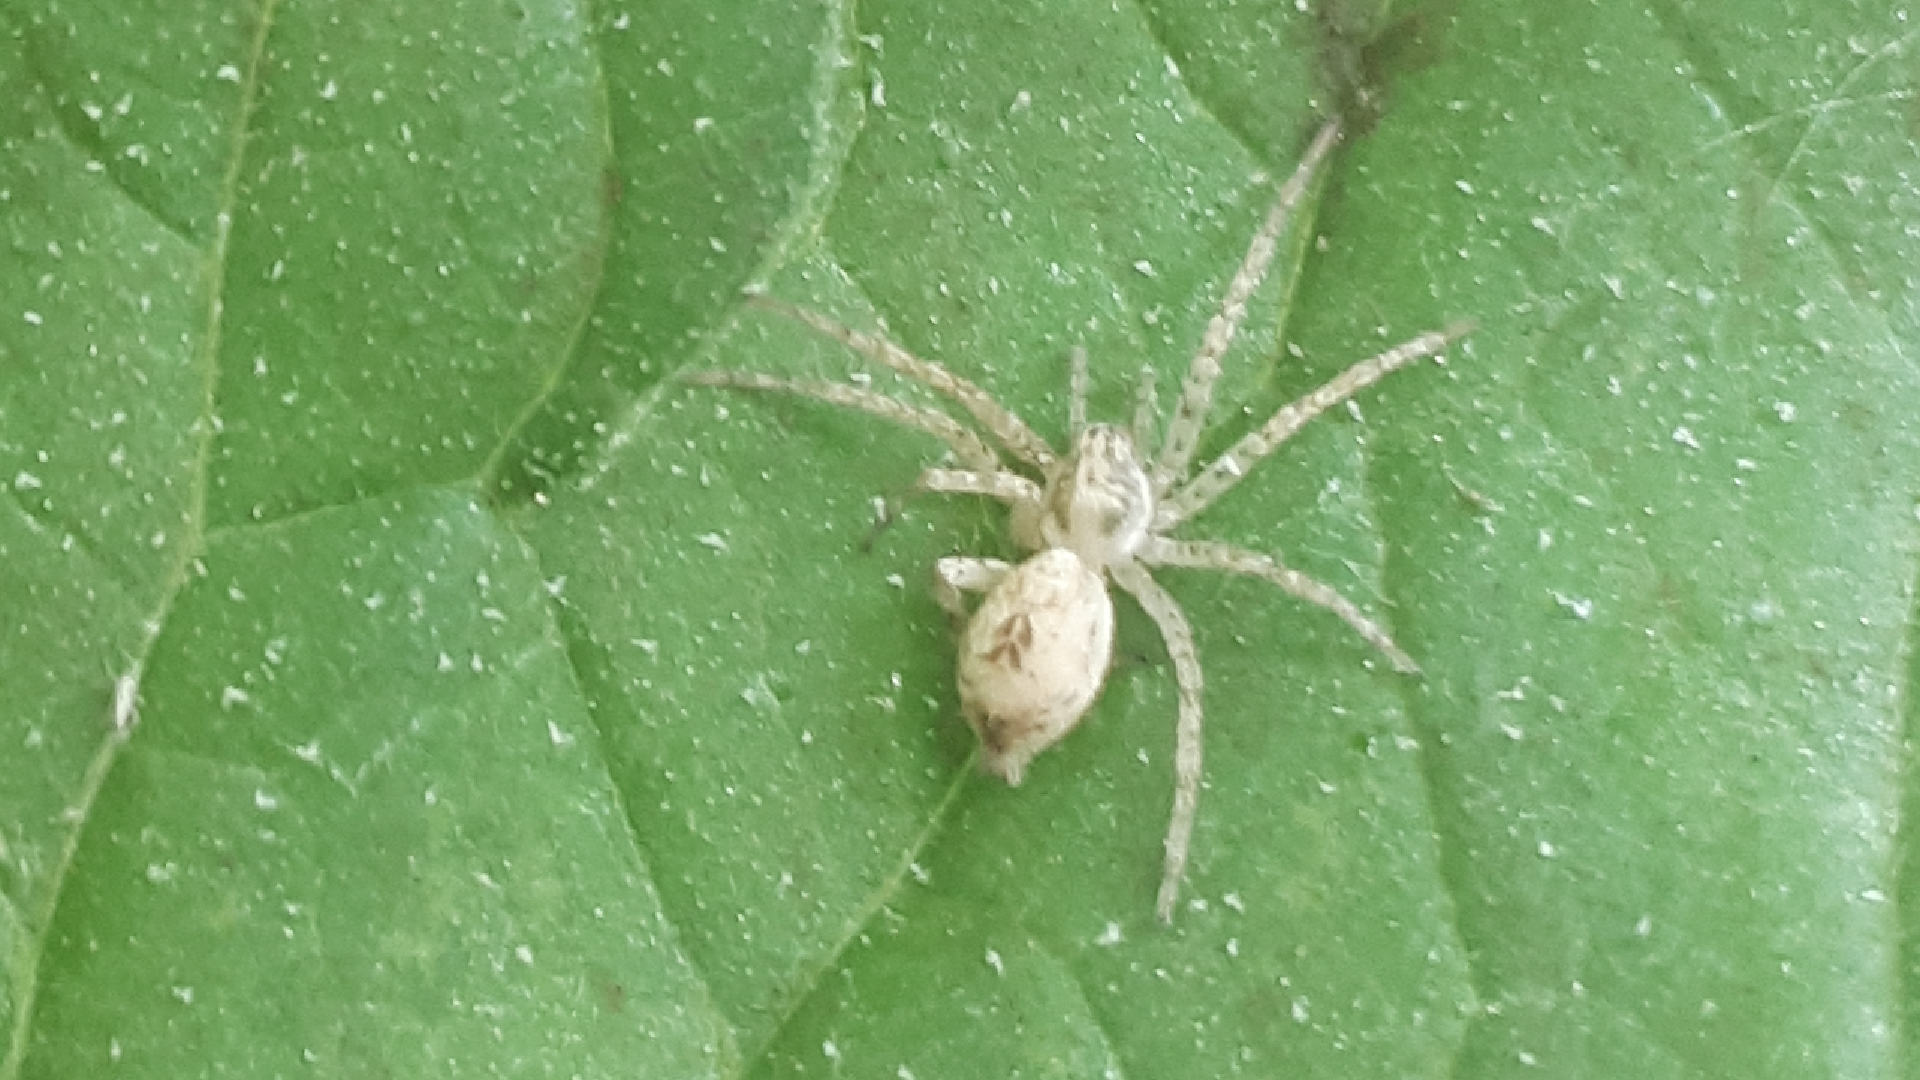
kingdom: Animalia
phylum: Arthropoda
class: Arachnida
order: Araneae
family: Anyphaenidae
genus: Anyphaena
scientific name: Anyphaena accentuata
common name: Buzzing spider
